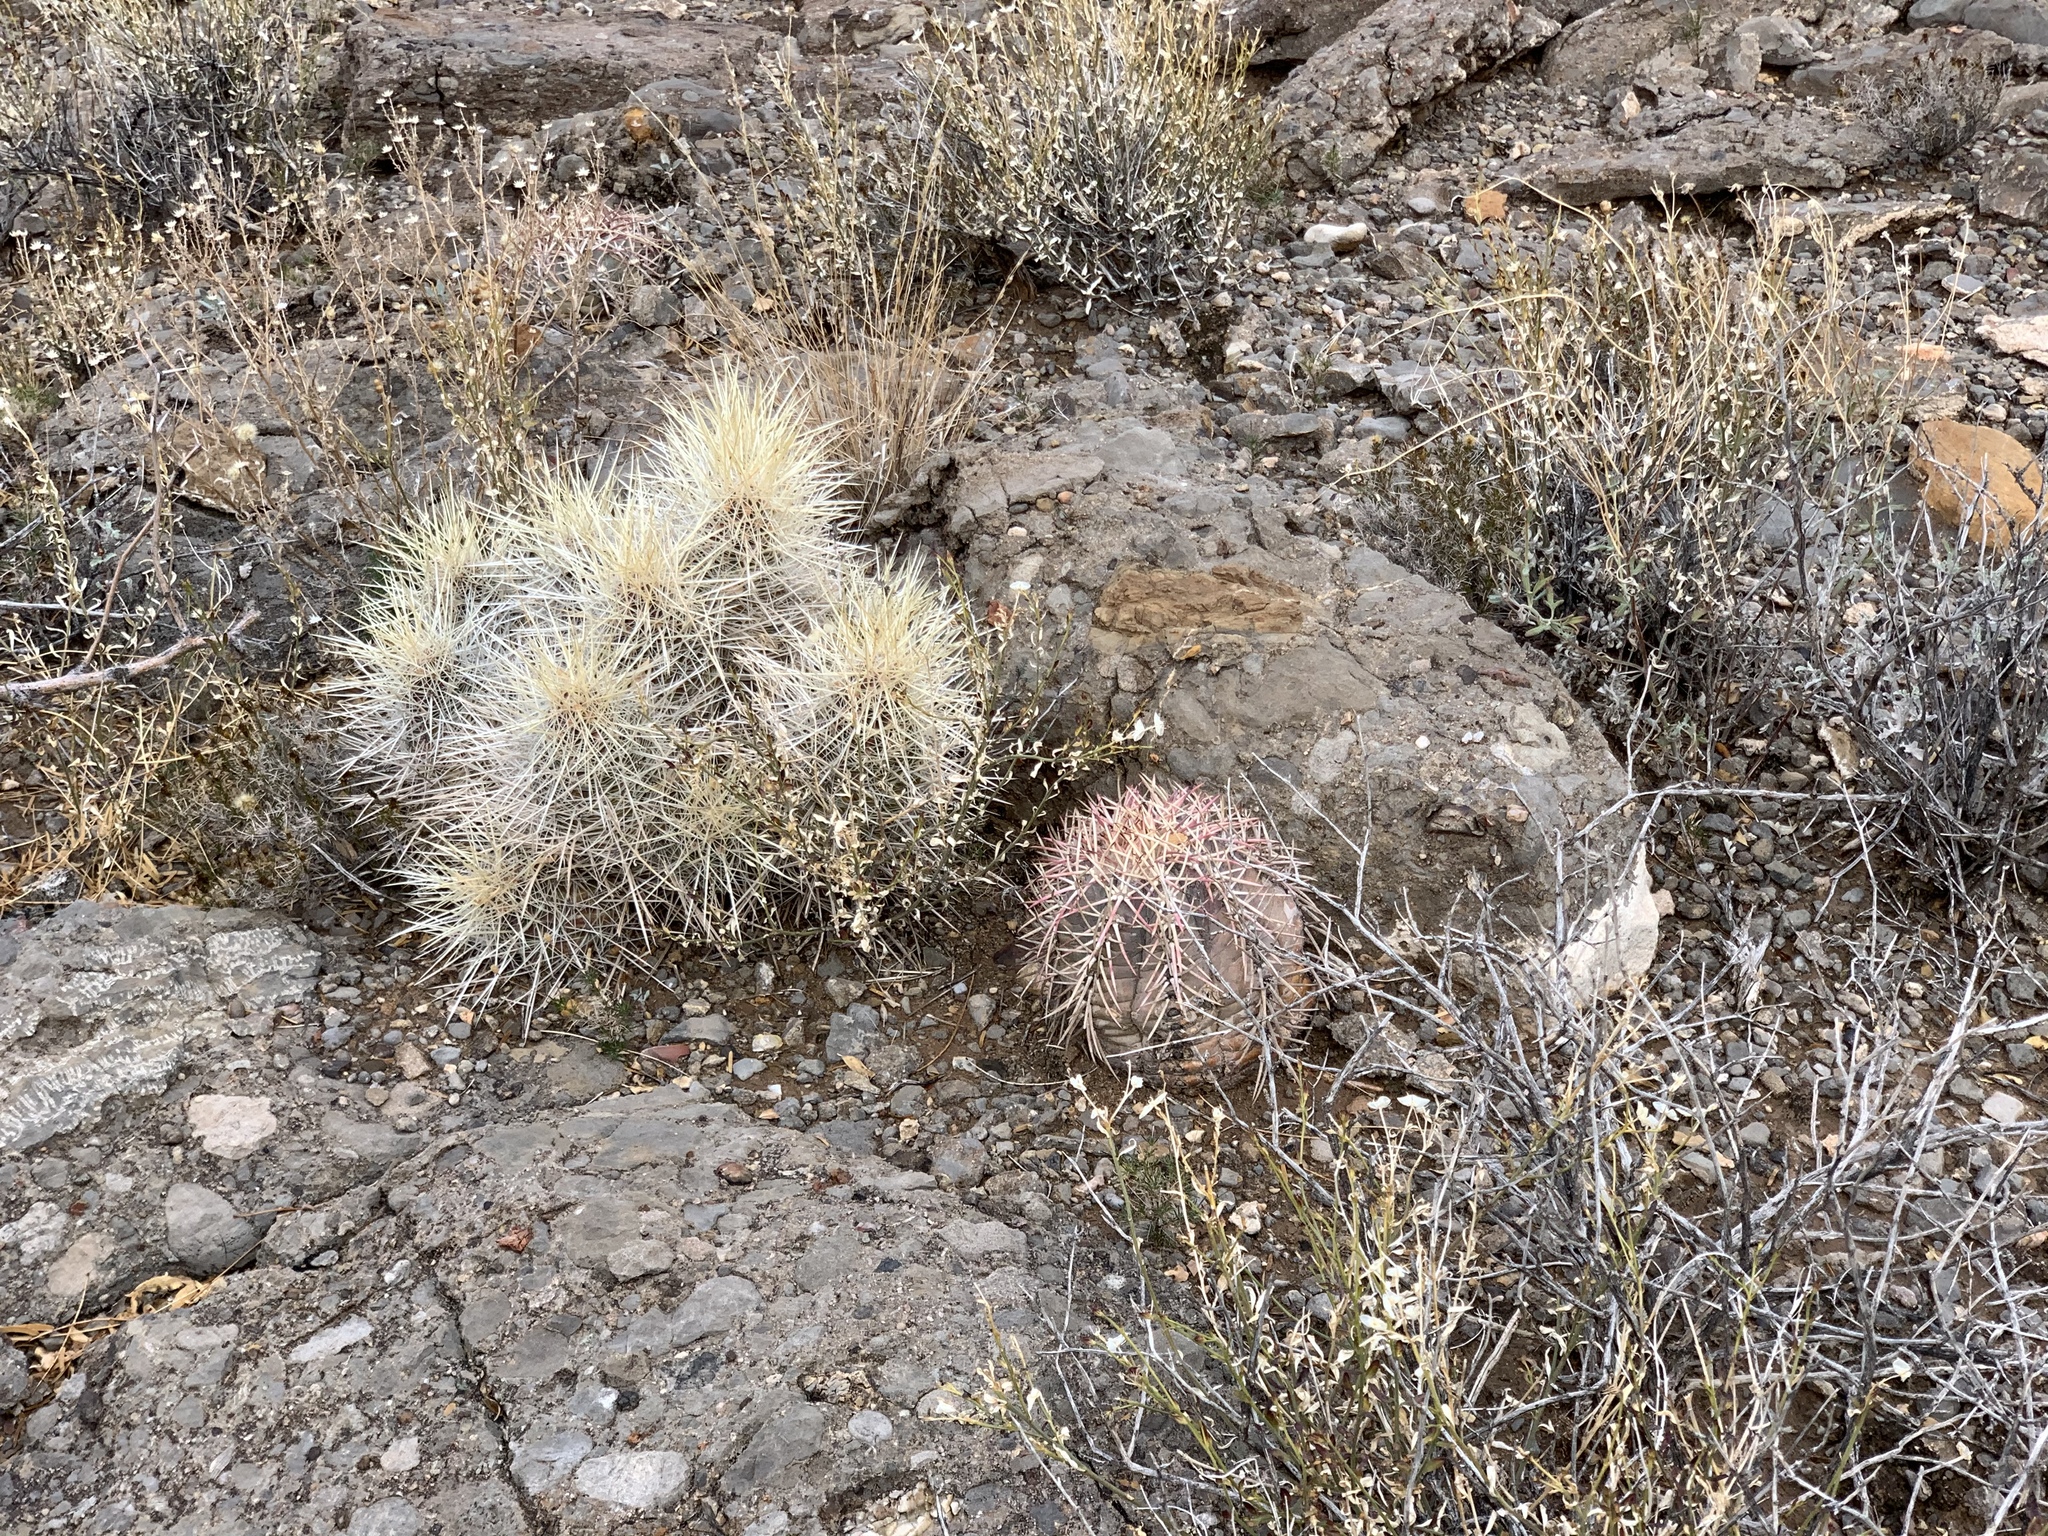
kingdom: Plantae
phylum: Tracheophyta
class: Magnoliopsida
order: Caryophyllales
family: Cactaceae
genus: Echinocactus
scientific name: Echinocactus horizonthalonius
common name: Devilshead
